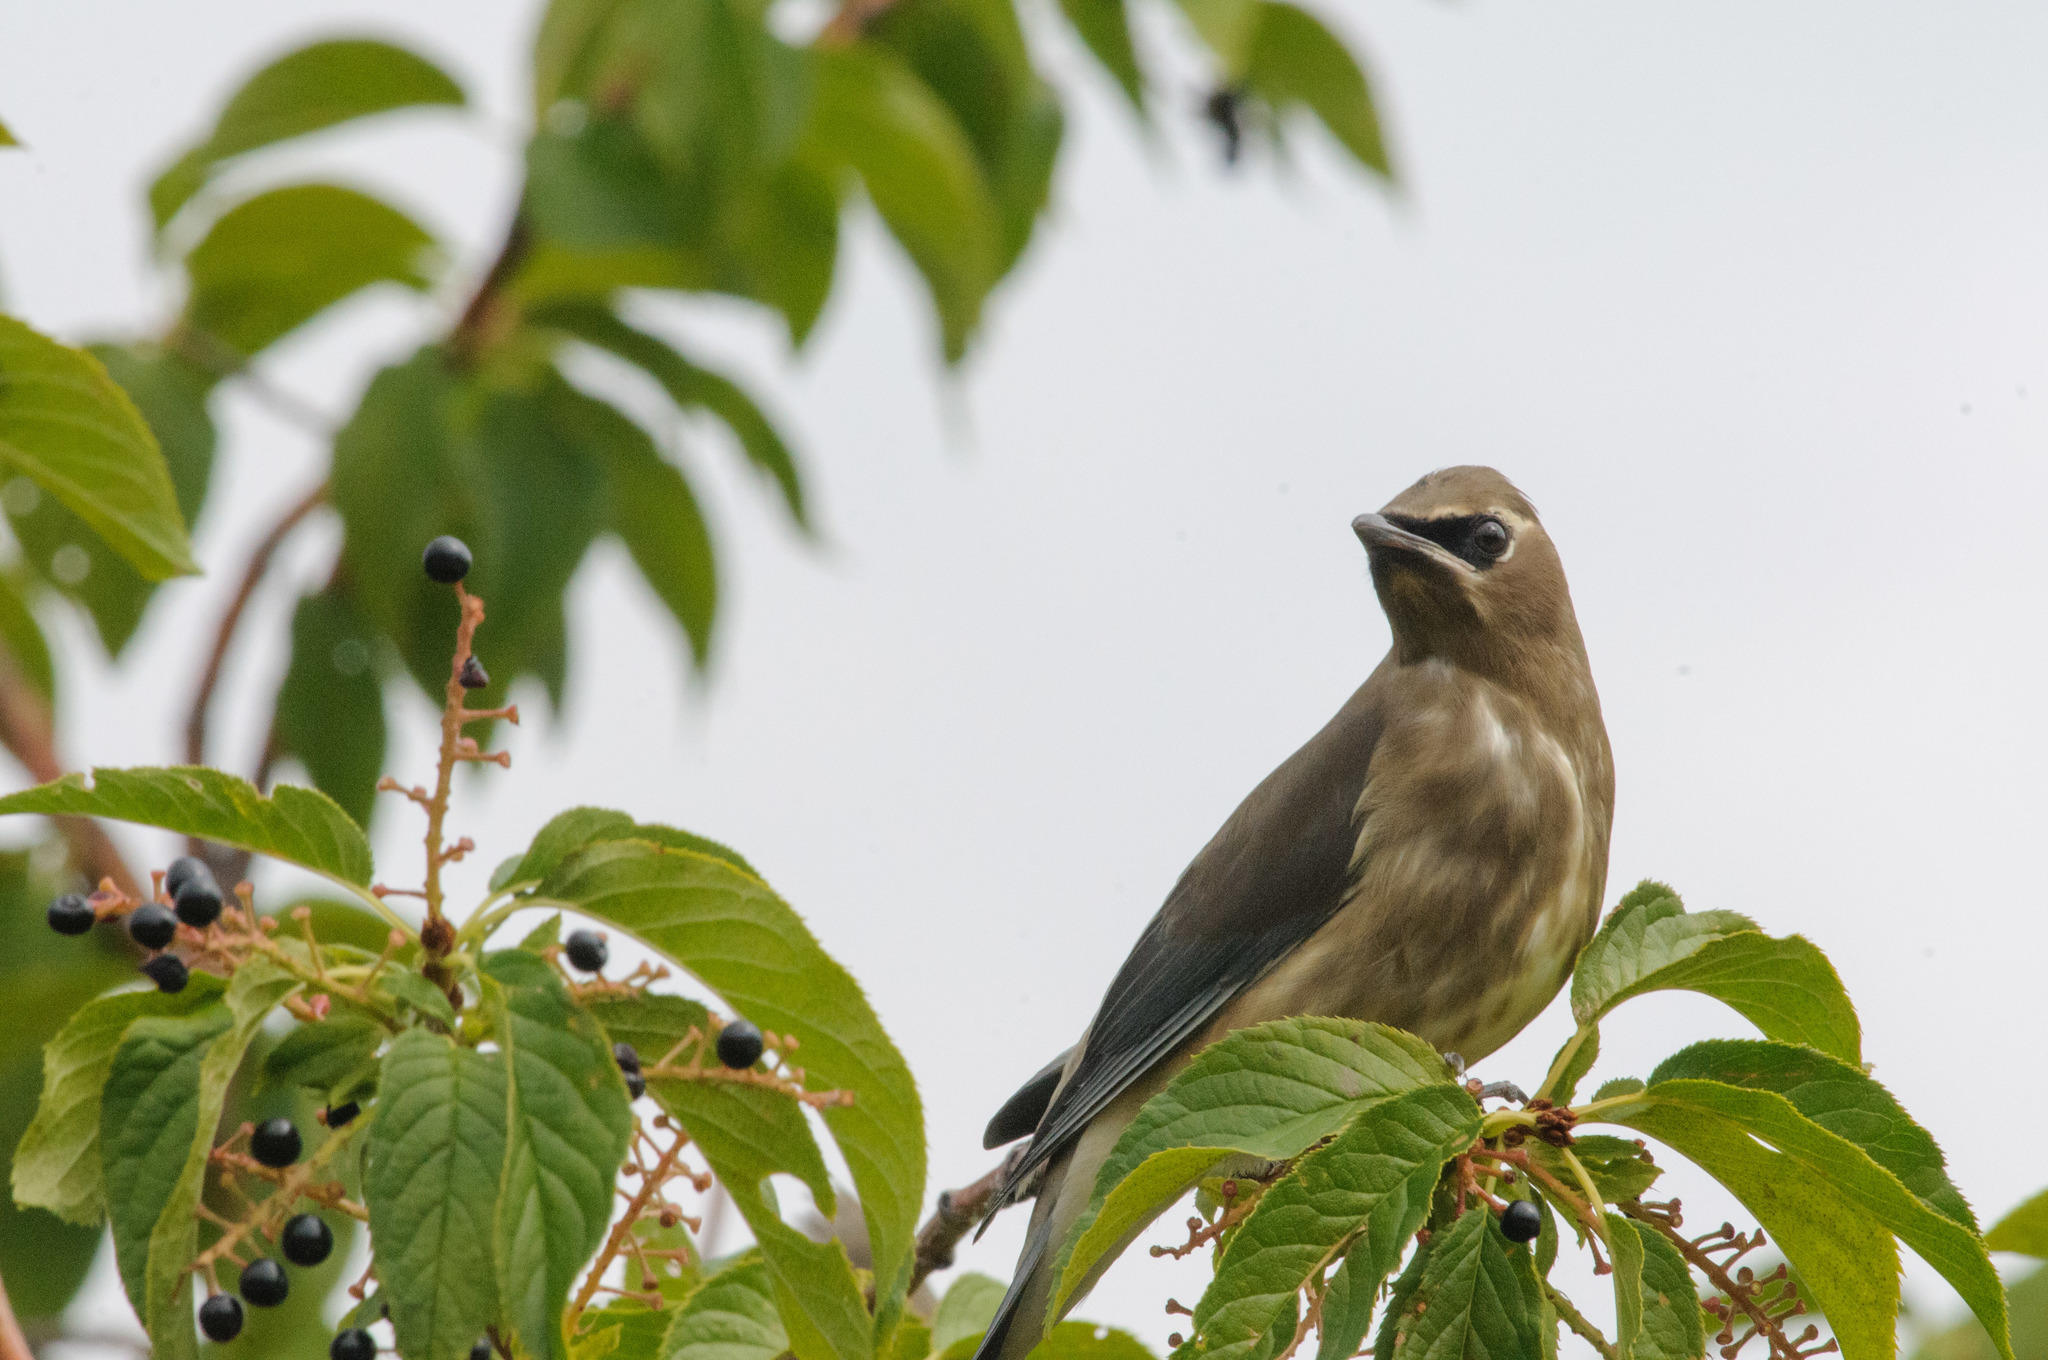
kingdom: Animalia
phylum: Chordata
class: Aves
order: Passeriformes
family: Bombycillidae
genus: Bombycilla
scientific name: Bombycilla cedrorum
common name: Cedar waxwing
